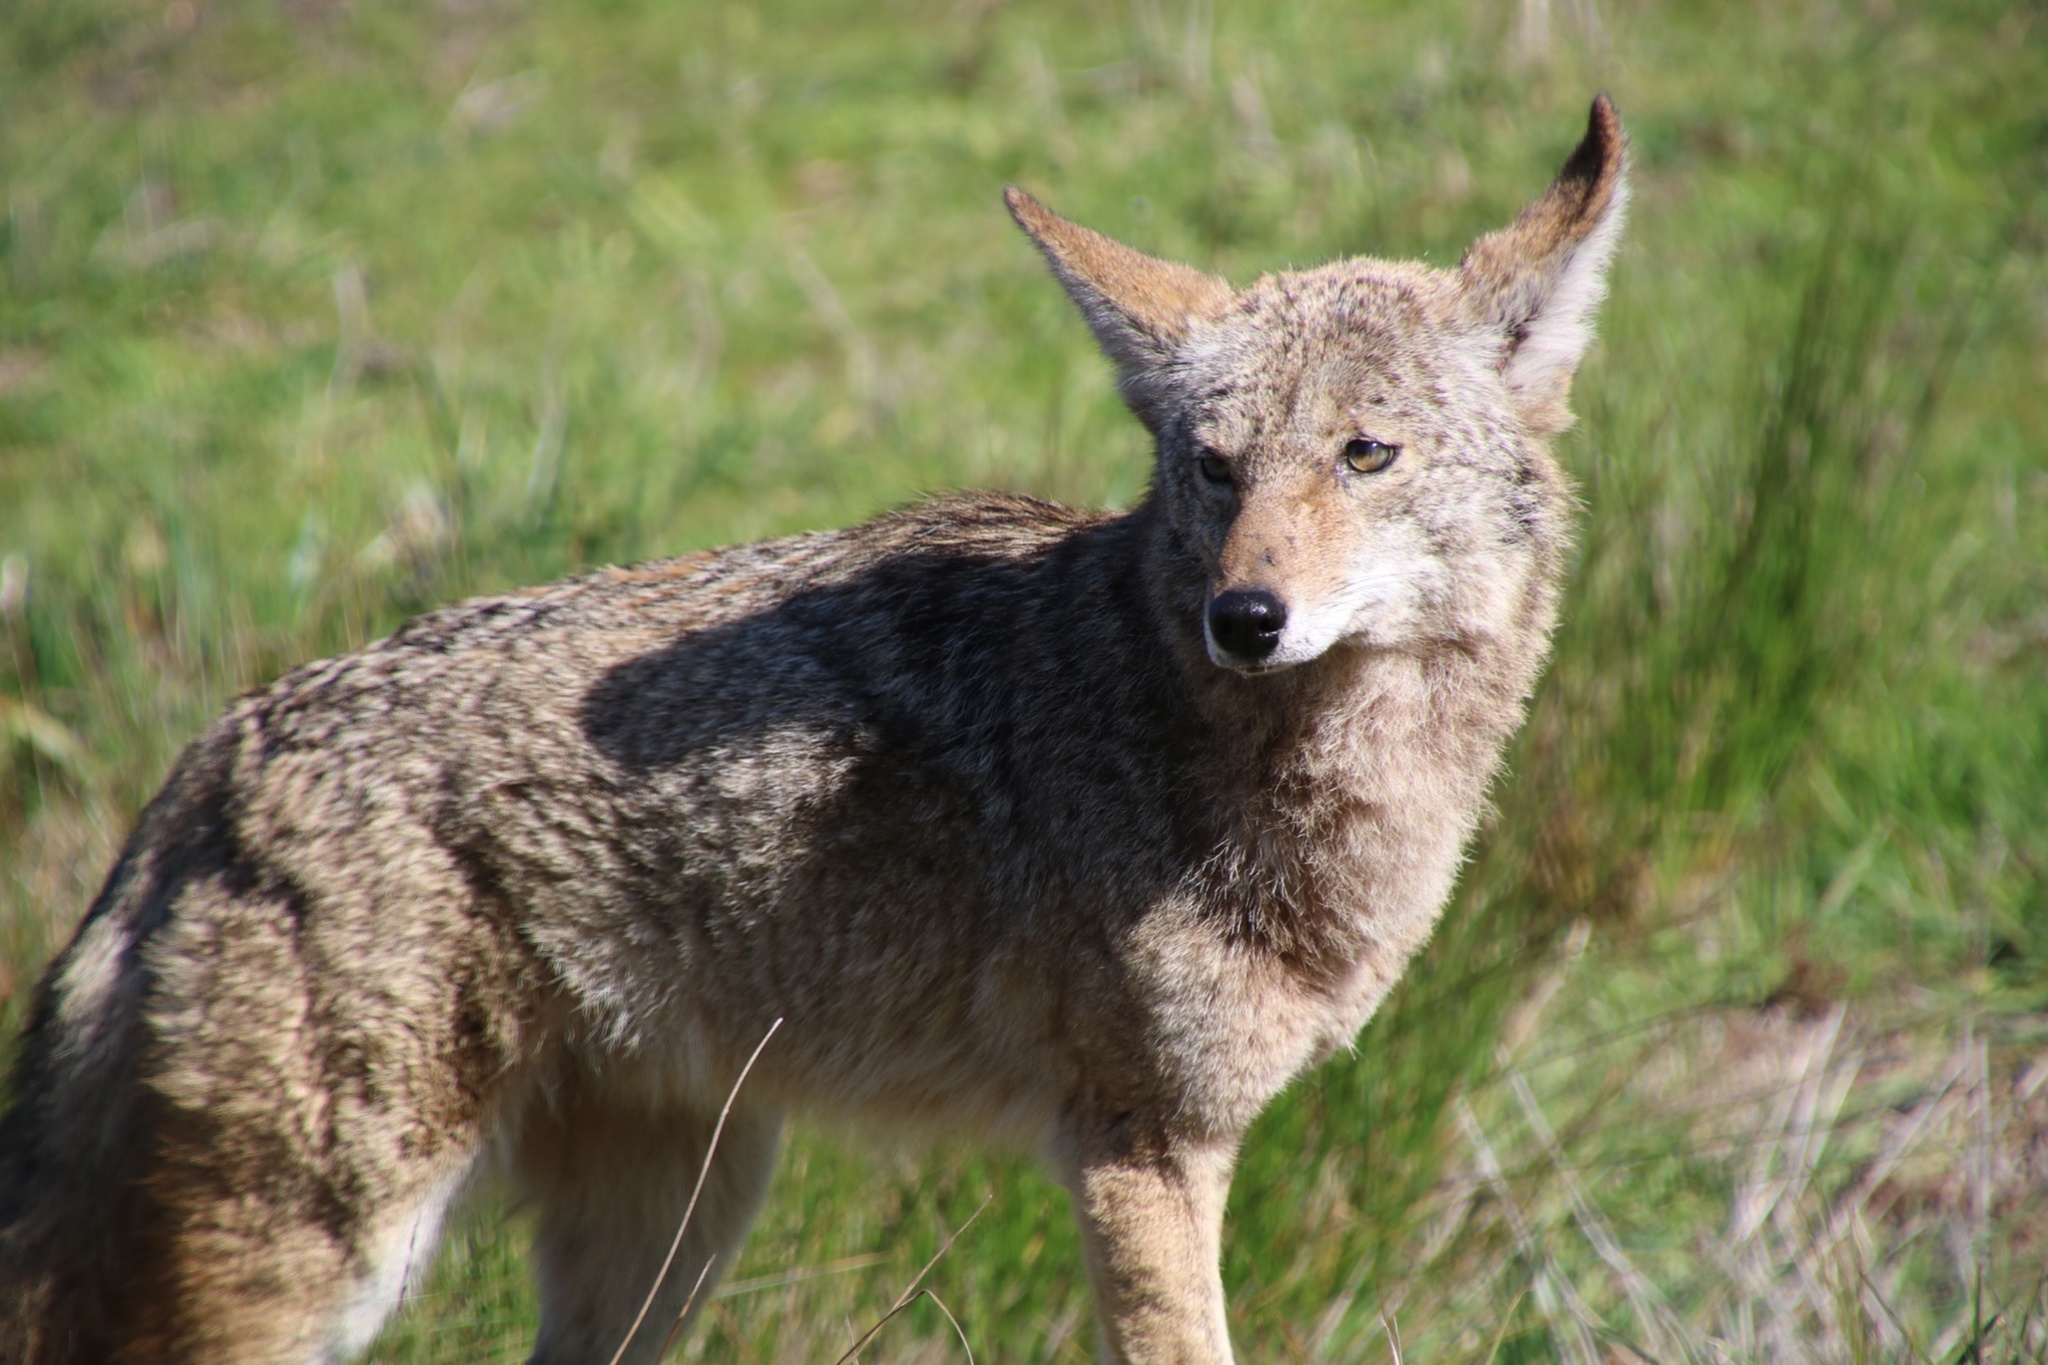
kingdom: Animalia
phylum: Chordata
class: Mammalia
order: Carnivora
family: Canidae
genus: Canis
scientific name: Canis latrans
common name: Coyote
